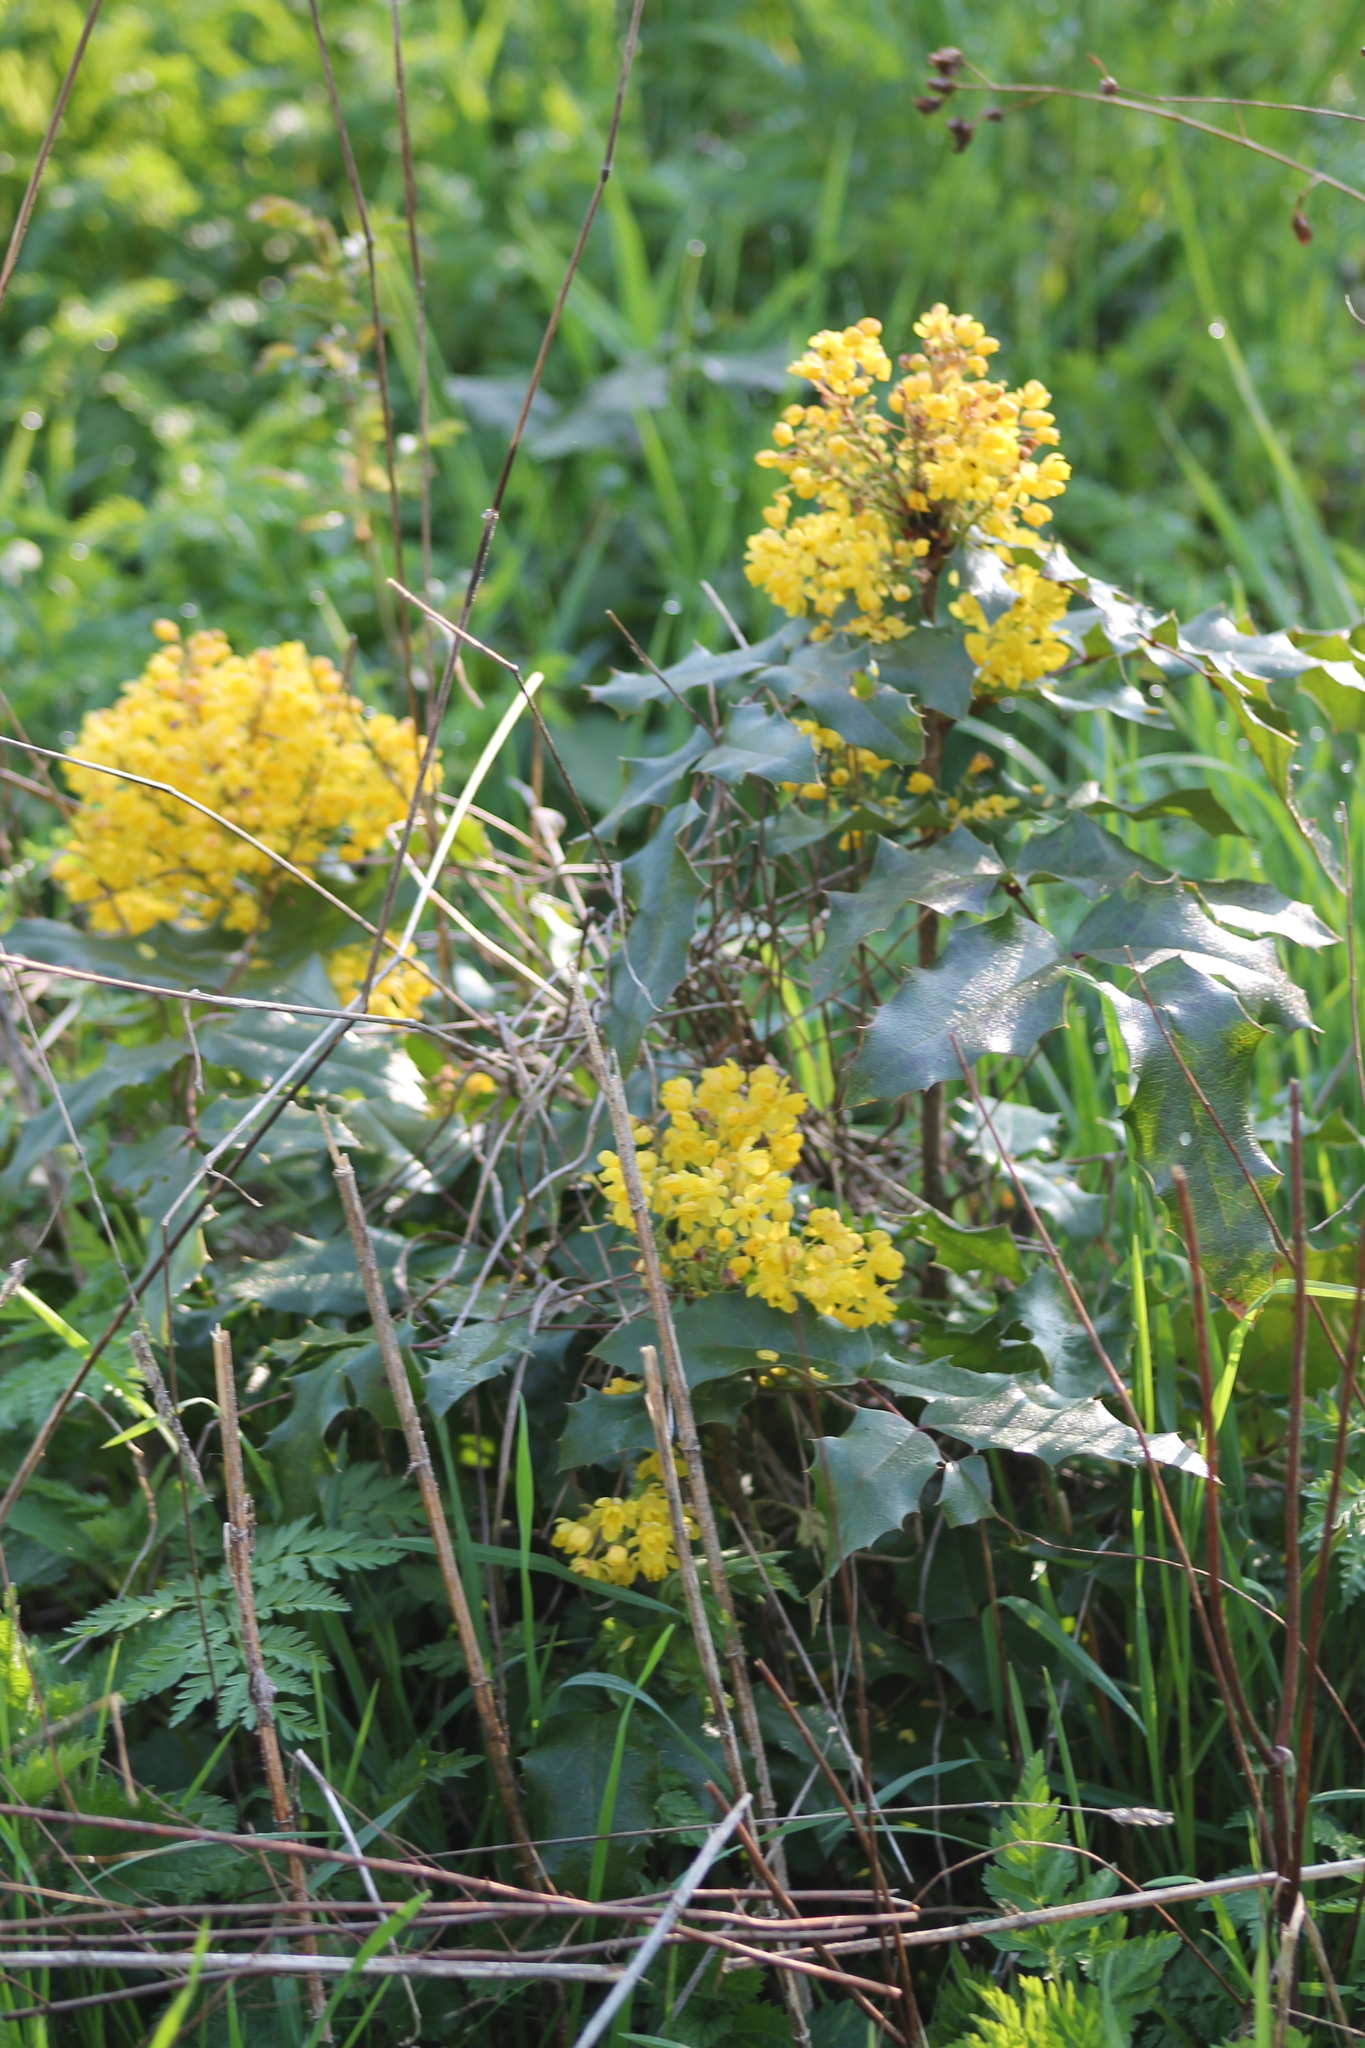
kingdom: Plantae
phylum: Tracheophyta
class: Magnoliopsida
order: Ranunculales
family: Berberidaceae
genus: Mahonia
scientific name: Mahonia aquifolium
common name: Oregon-grape
